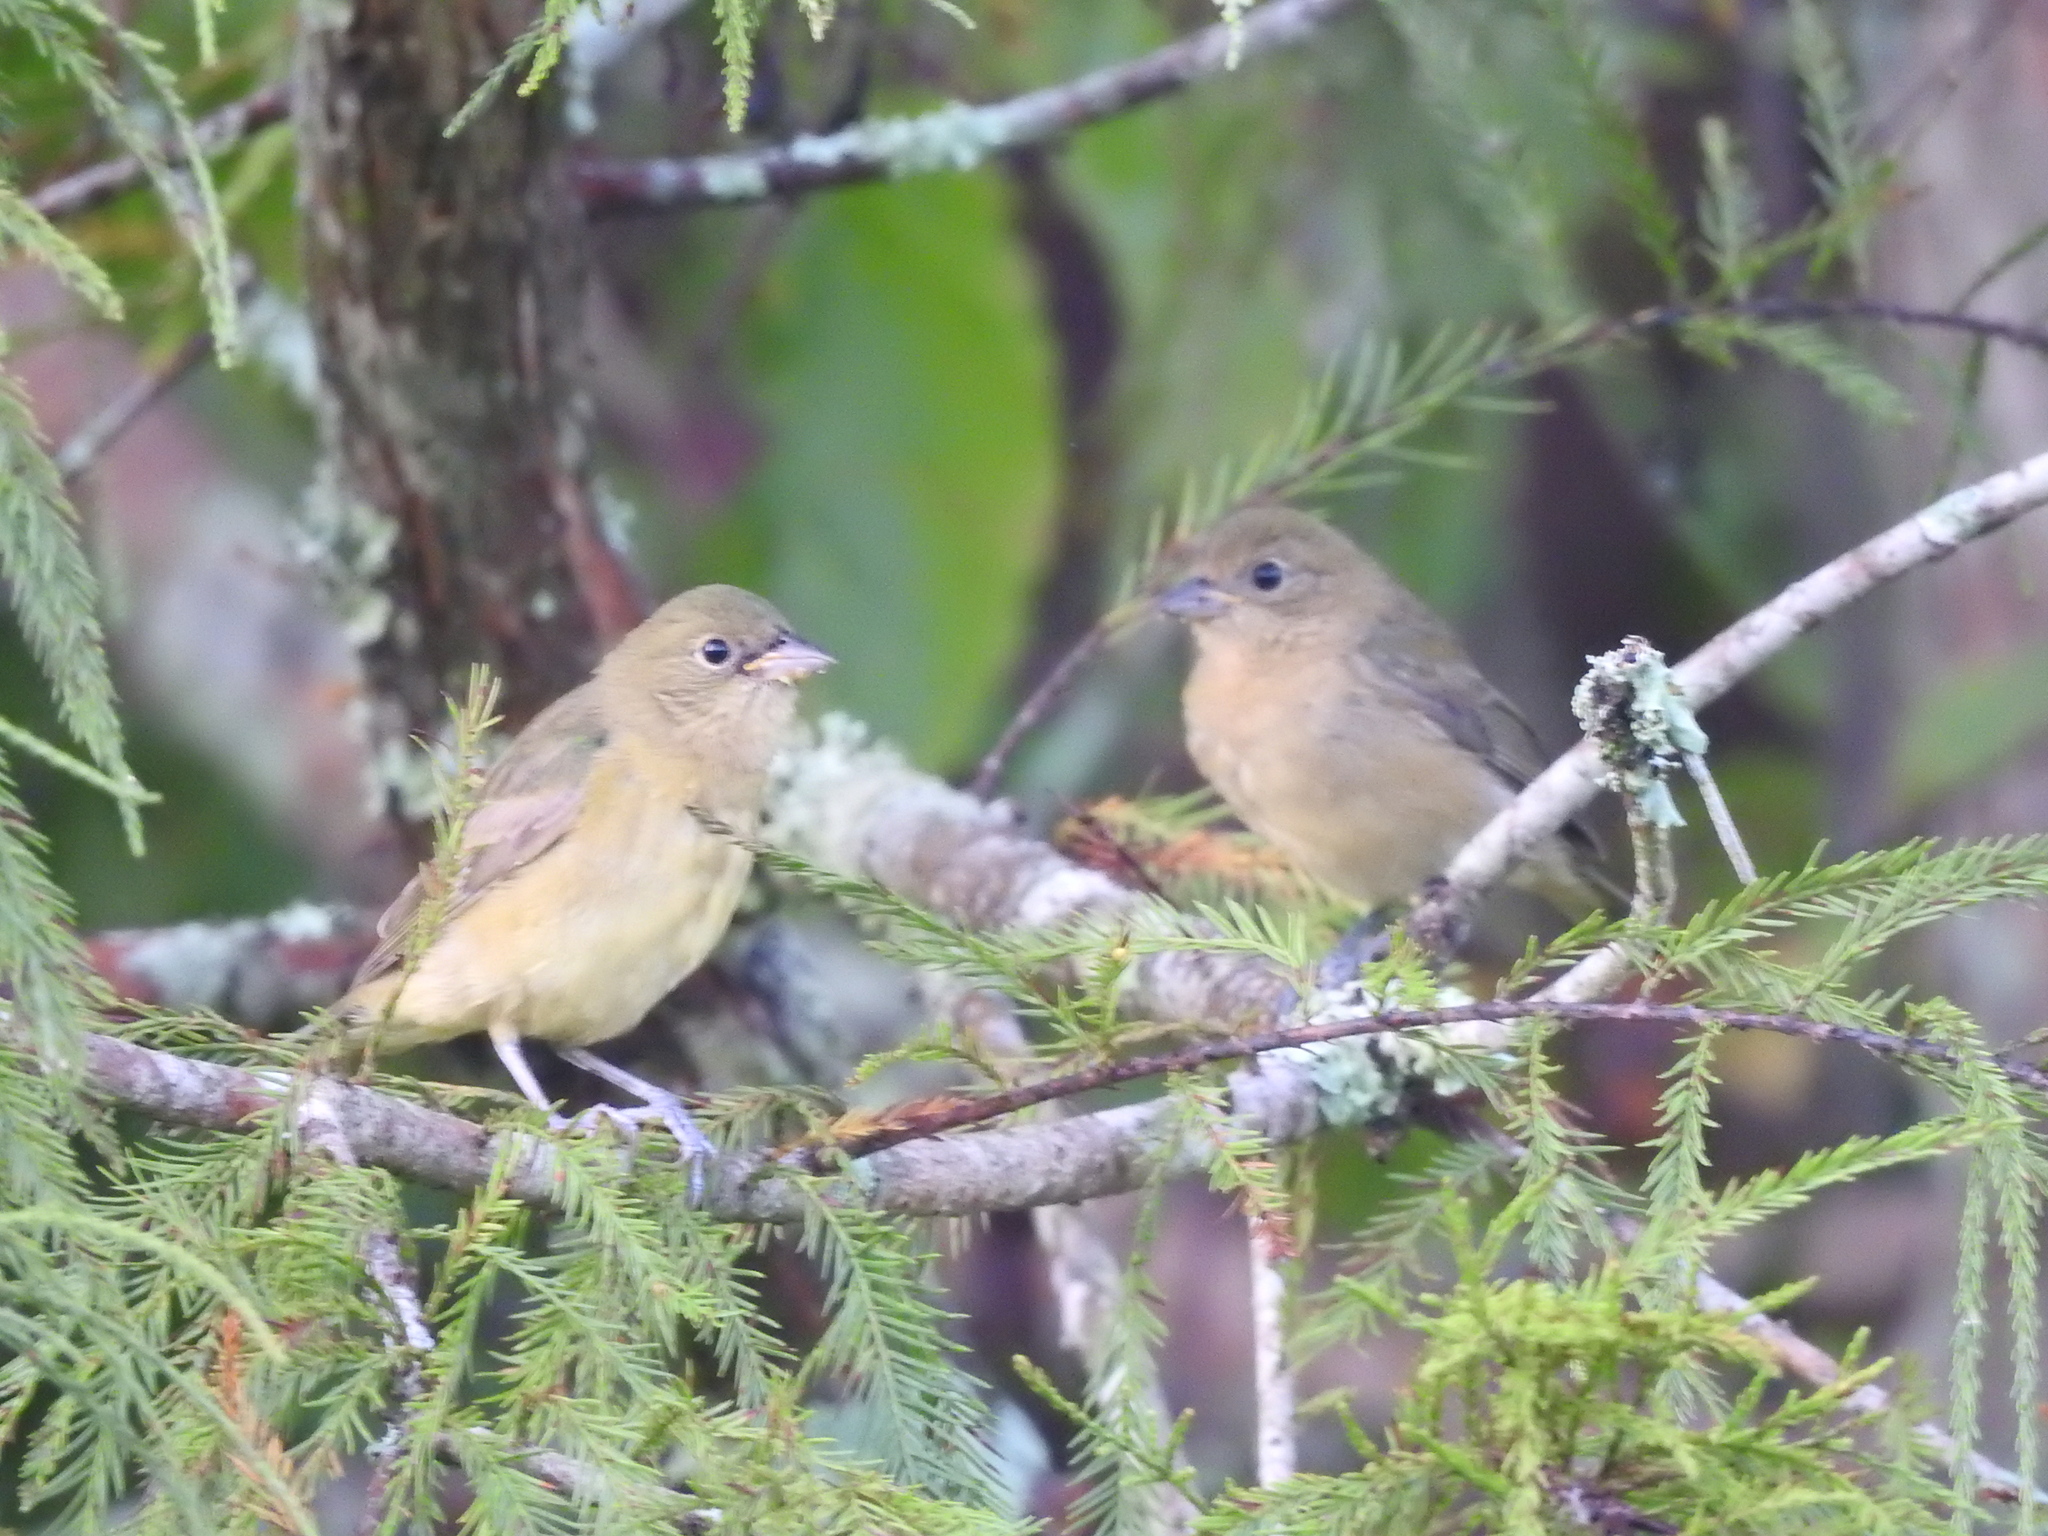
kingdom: Animalia
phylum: Chordata
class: Aves
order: Passeriformes
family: Cardinalidae
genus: Passerina
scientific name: Passerina ciris
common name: Painted bunting
